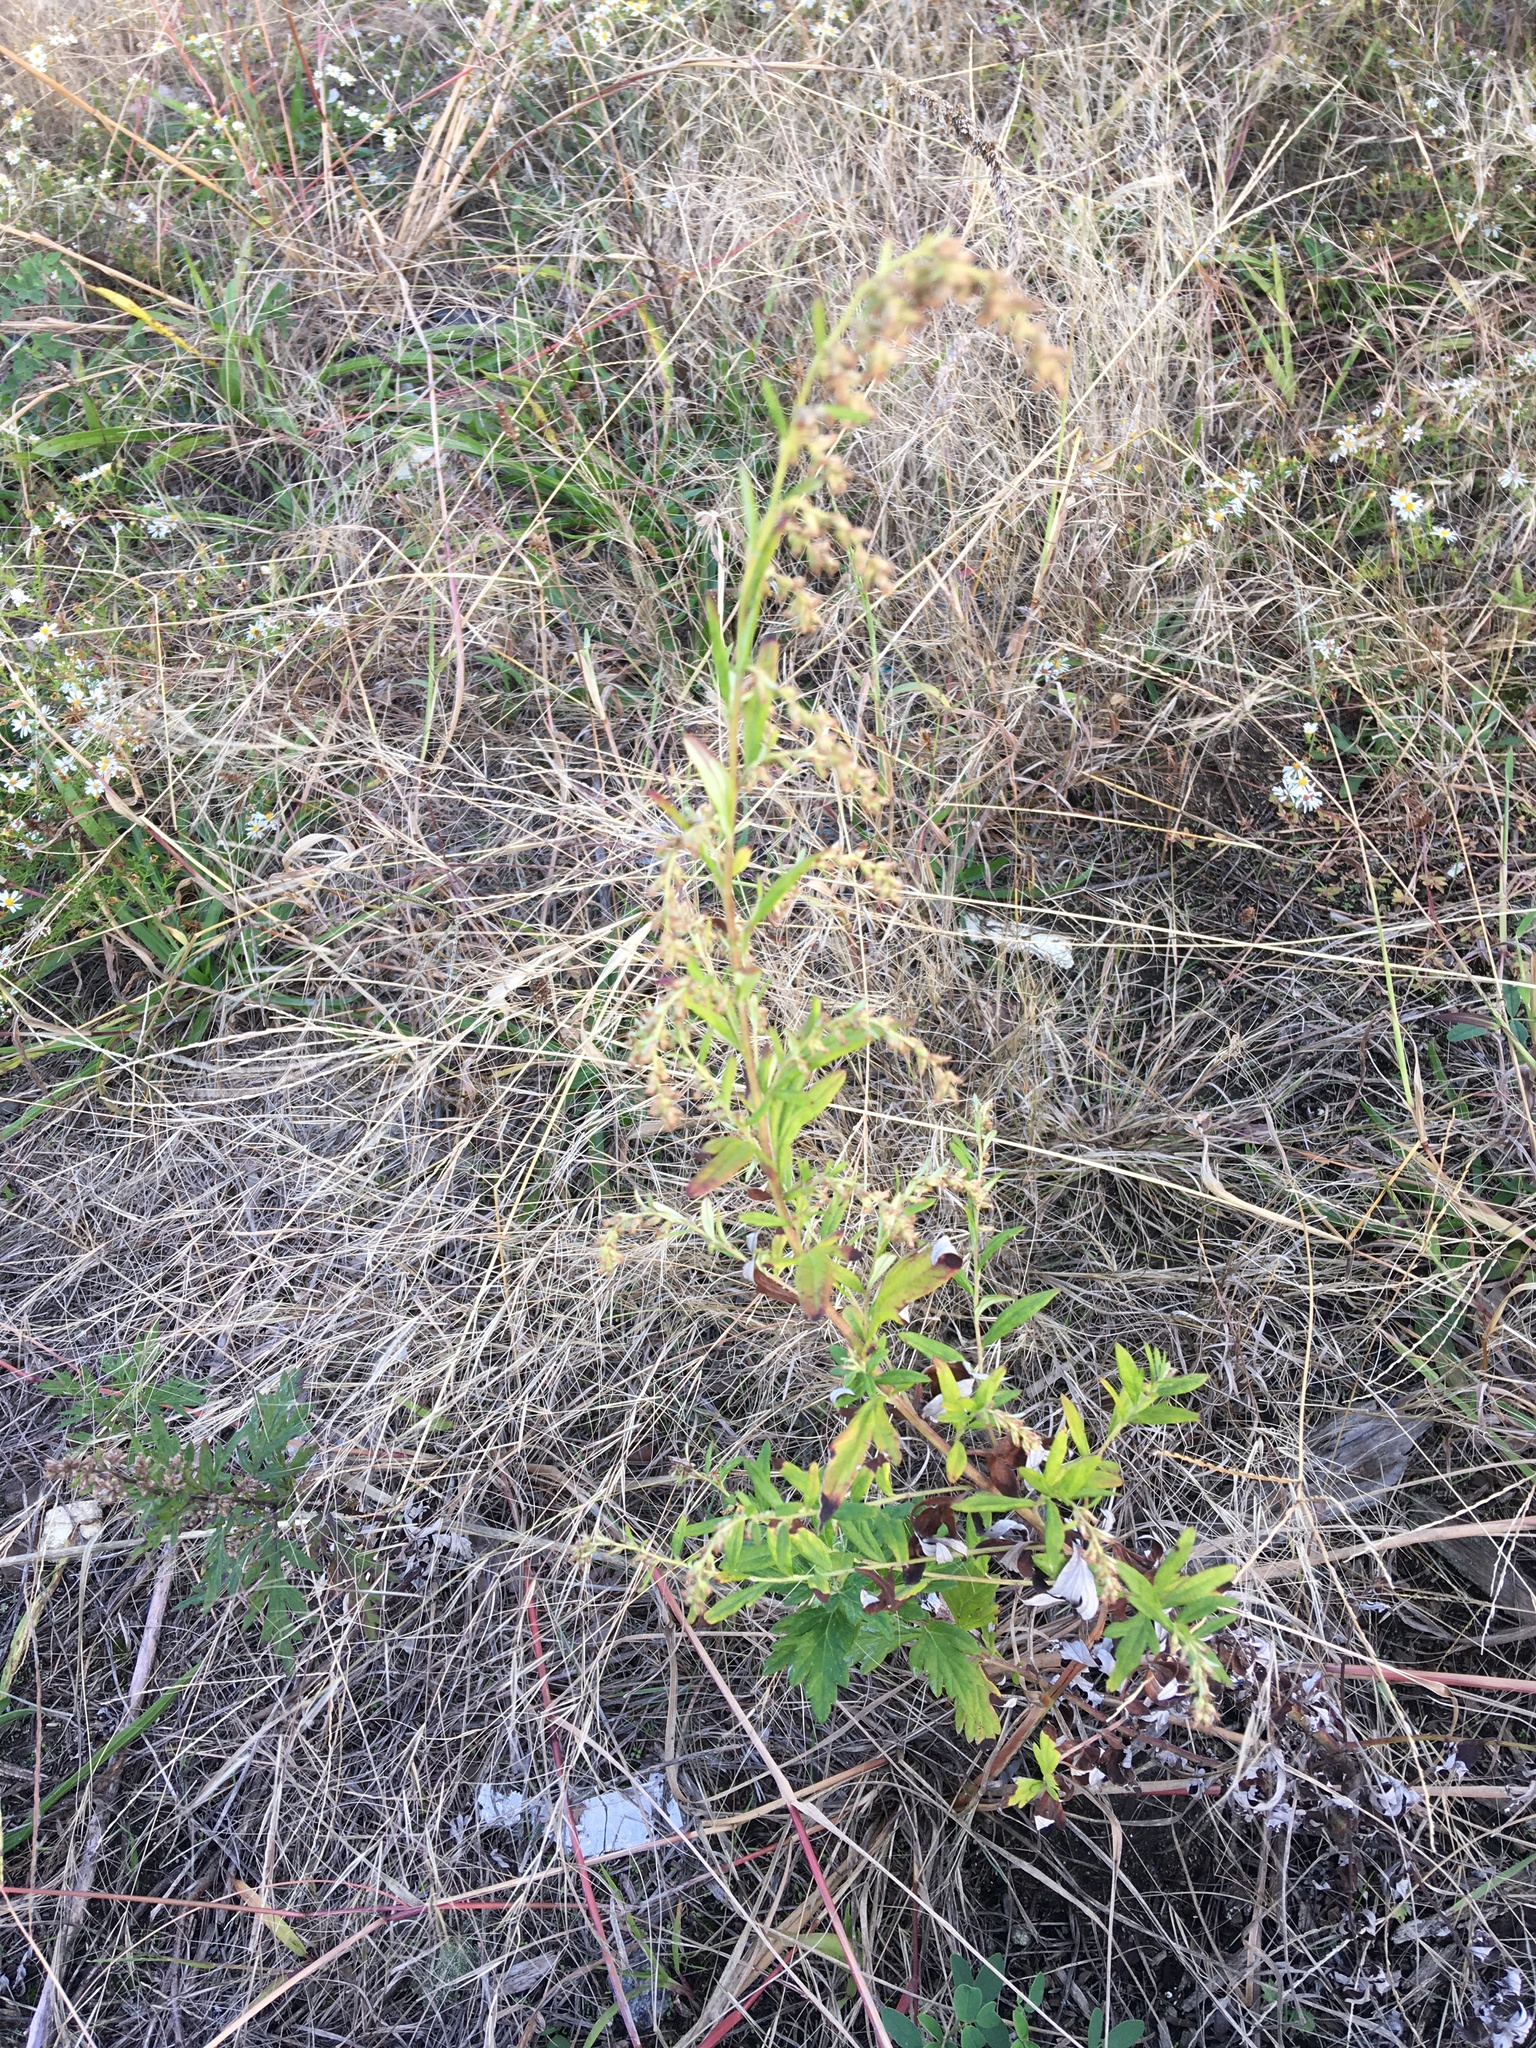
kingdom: Plantae
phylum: Tracheophyta
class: Magnoliopsida
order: Asterales
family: Asteraceae
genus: Artemisia
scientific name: Artemisia vulgaris
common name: Mugwort
